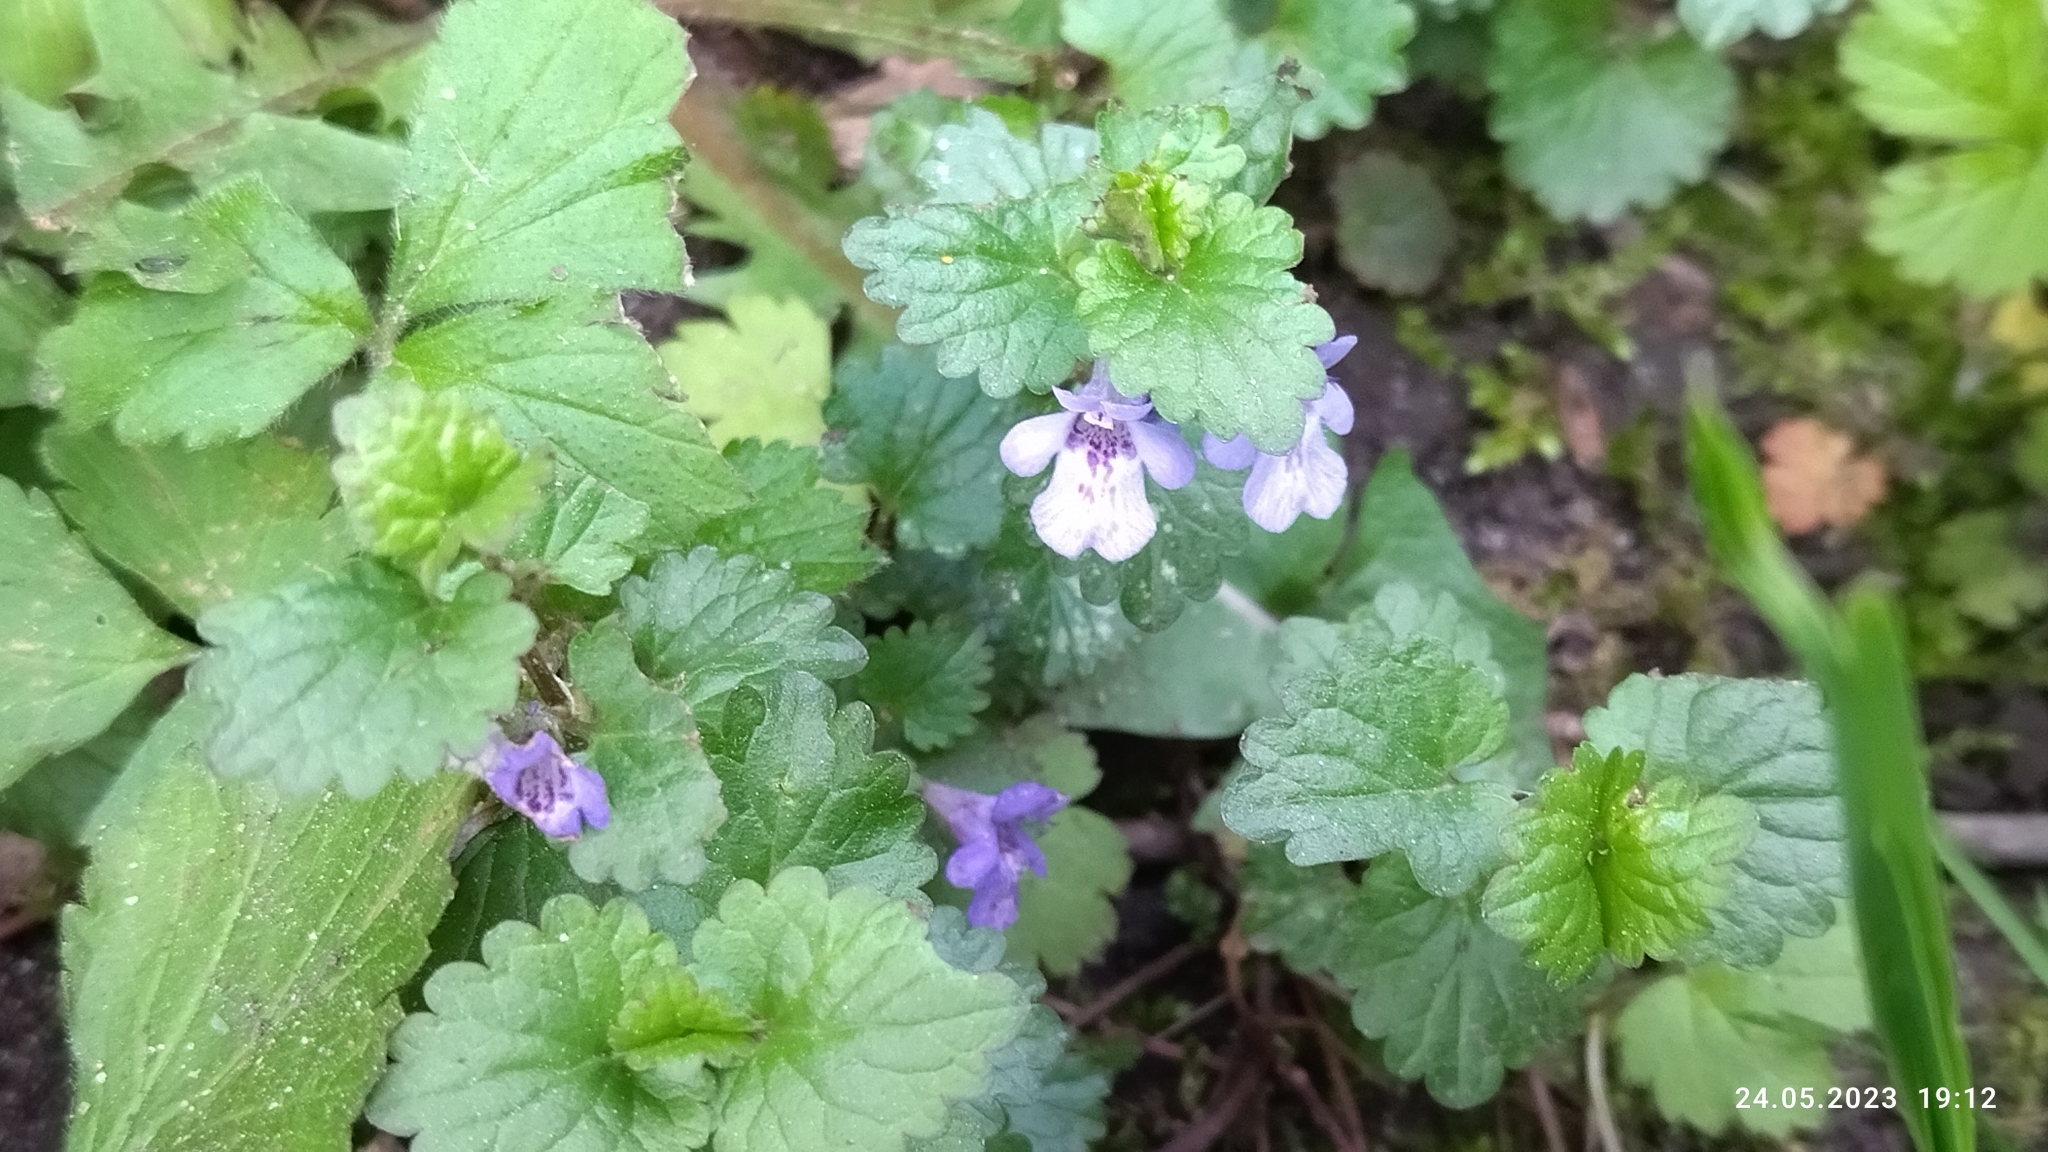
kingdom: Plantae
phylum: Tracheophyta
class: Magnoliopsida
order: Lamiales
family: Lamiaceae
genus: Glechoma
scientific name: Glechoma hederacea
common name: Ground ivy
